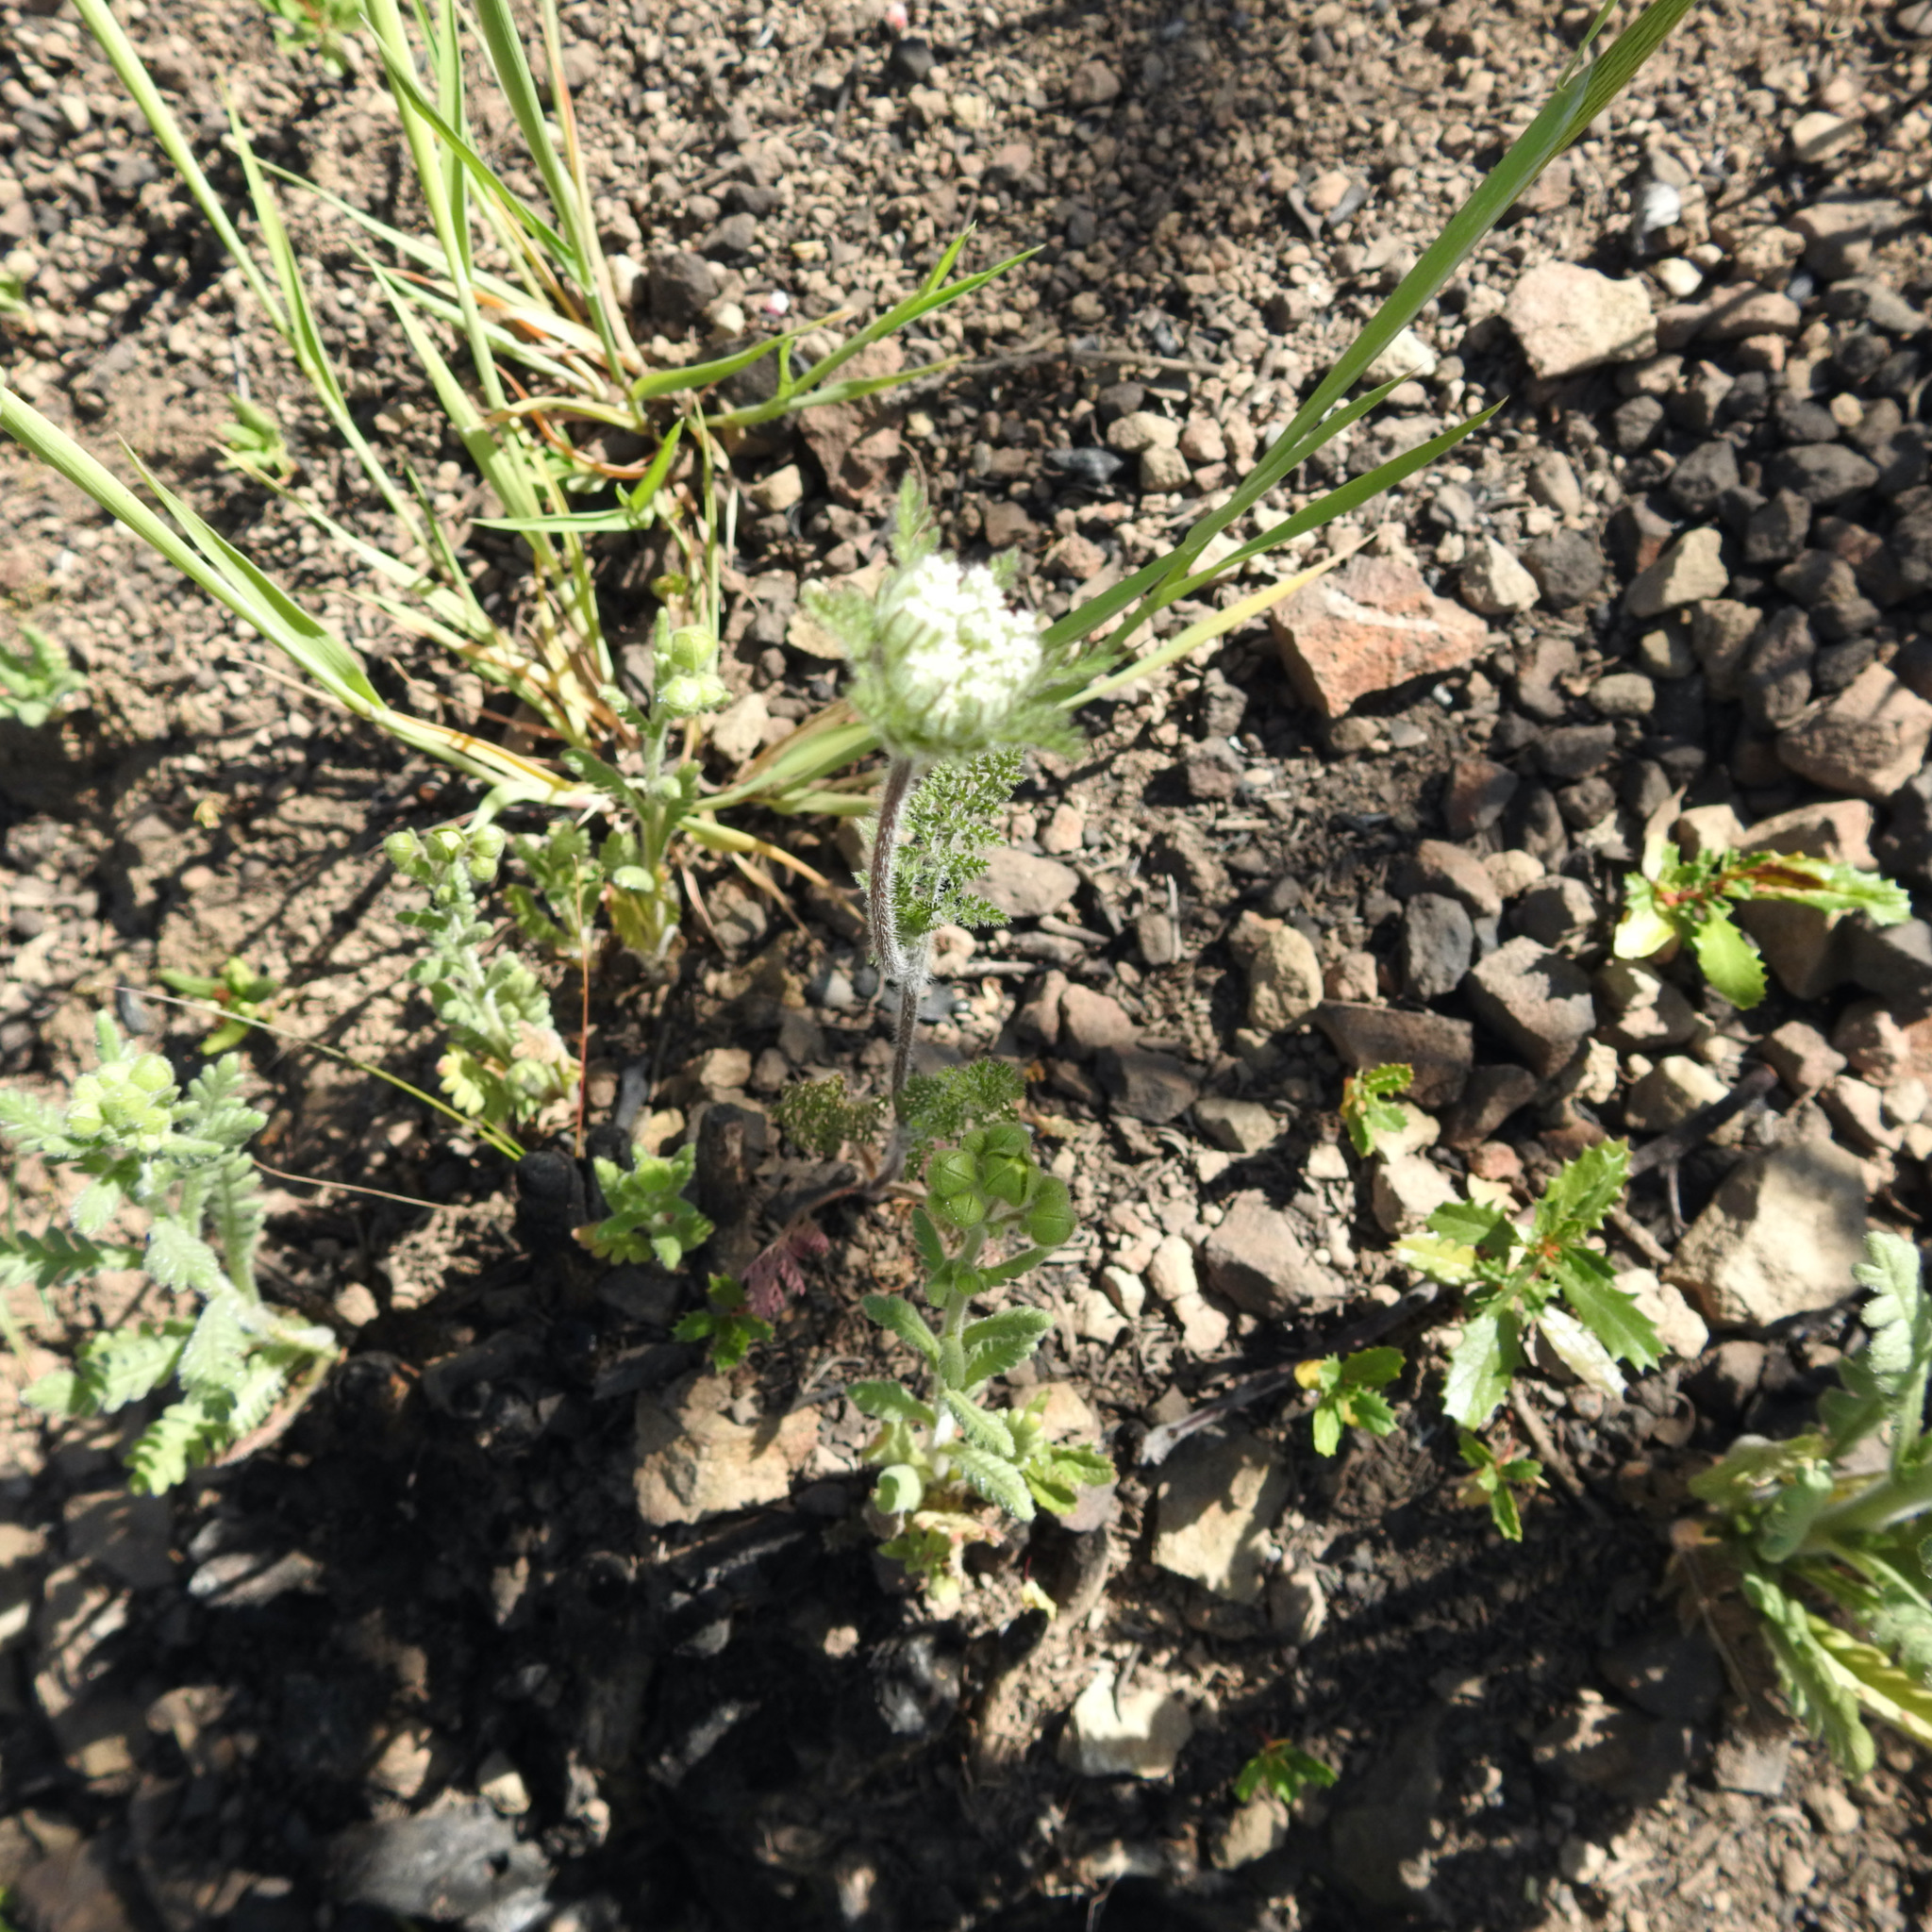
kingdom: Plantae
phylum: Tracheophyta
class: Magnoliopsida
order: Apiales
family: Apiaceae
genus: Daucus
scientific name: Daucus pusillus
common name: Southwest wild carrot
